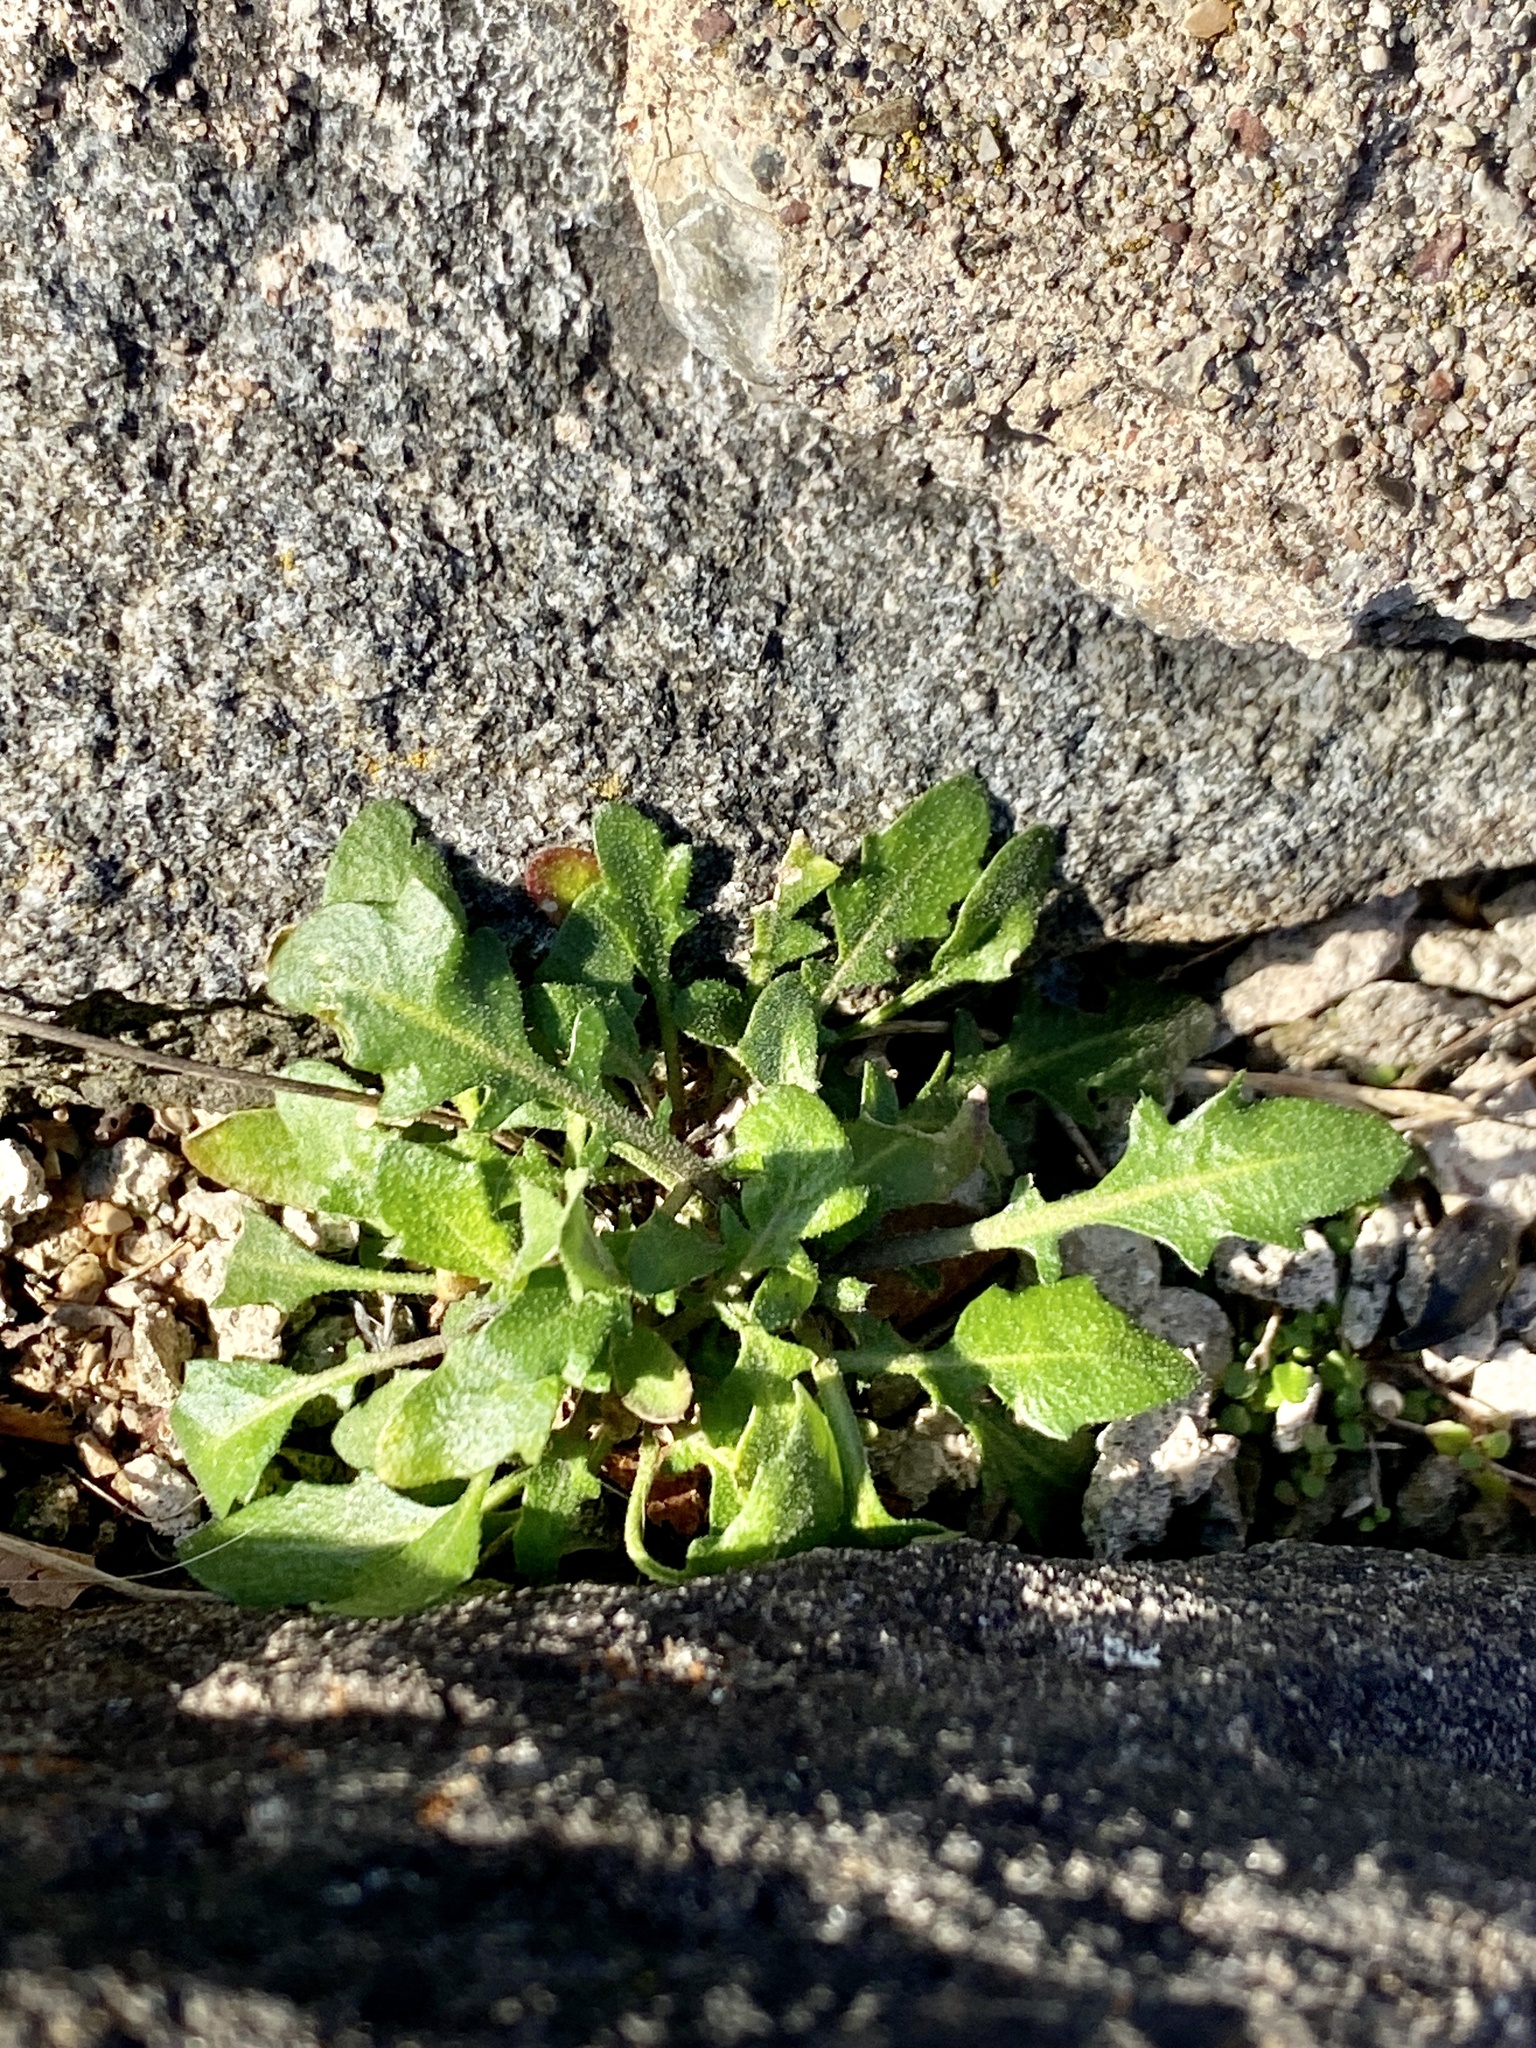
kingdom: Plantae
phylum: Tracheophyta
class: Magnoliopsida
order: Brassicales
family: Brassicaceae
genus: Arabidopsis
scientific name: Arabidopsis lyrata
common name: Lyrate rockcress
